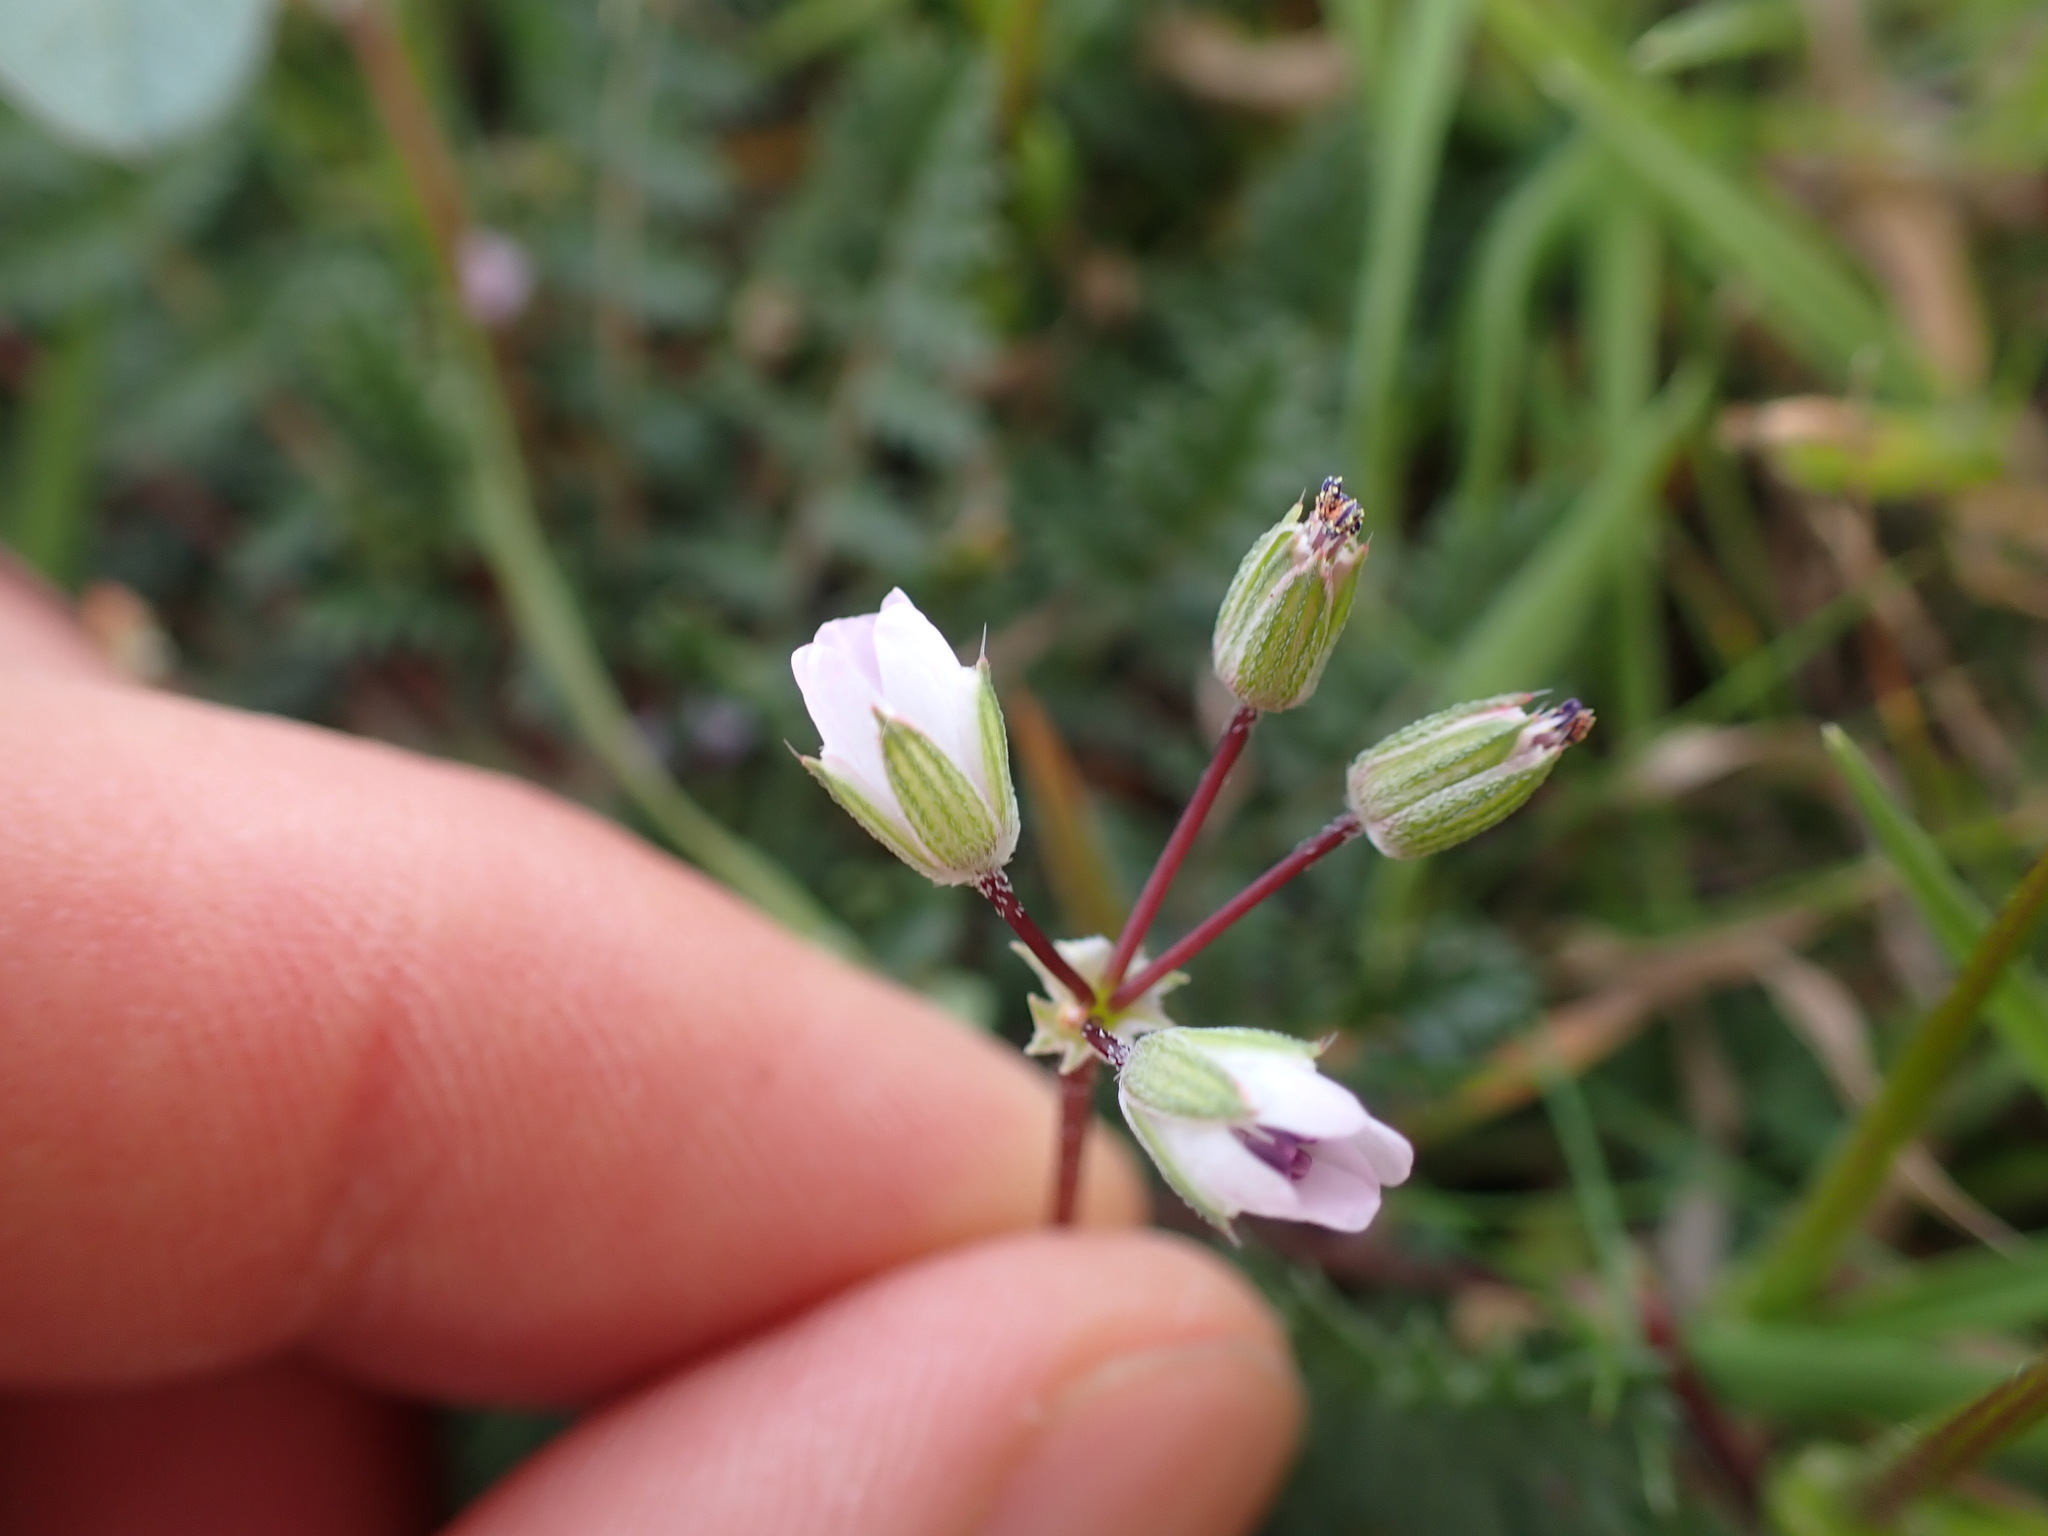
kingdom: Plantae
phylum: Tracheophyta
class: Magnoliopsida
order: Geraniales
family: Geraniaceae
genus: Erodium
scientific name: Erodium cicutarium
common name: Common stork's-bill
